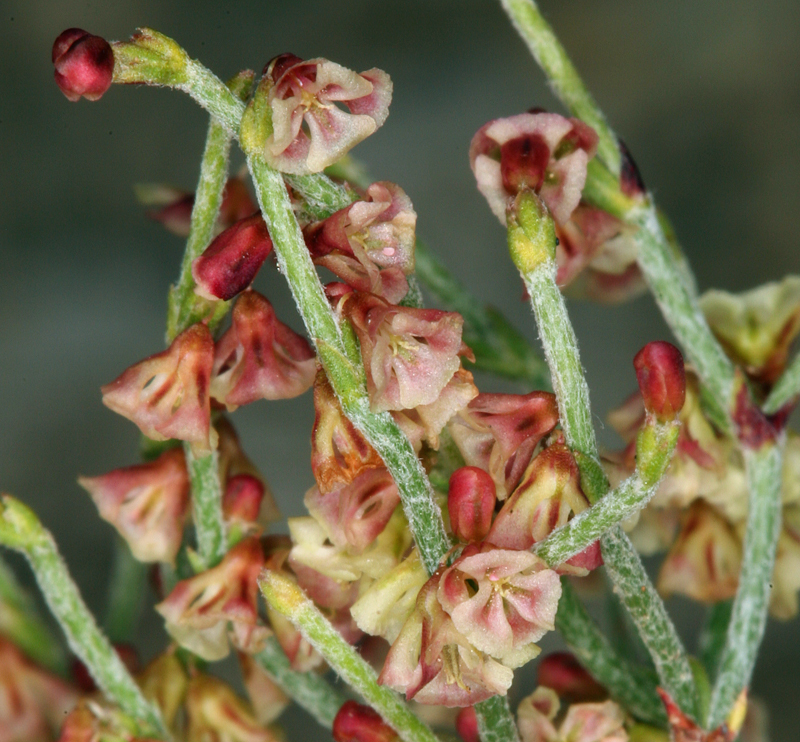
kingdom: Plantae
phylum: Tracheophyta
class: Magnoliopsida
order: Caryophyllales
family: Polygonaceae
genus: Eriogonum
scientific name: Eriogonum nidularium
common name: Bird's-nest wild buckwheat
